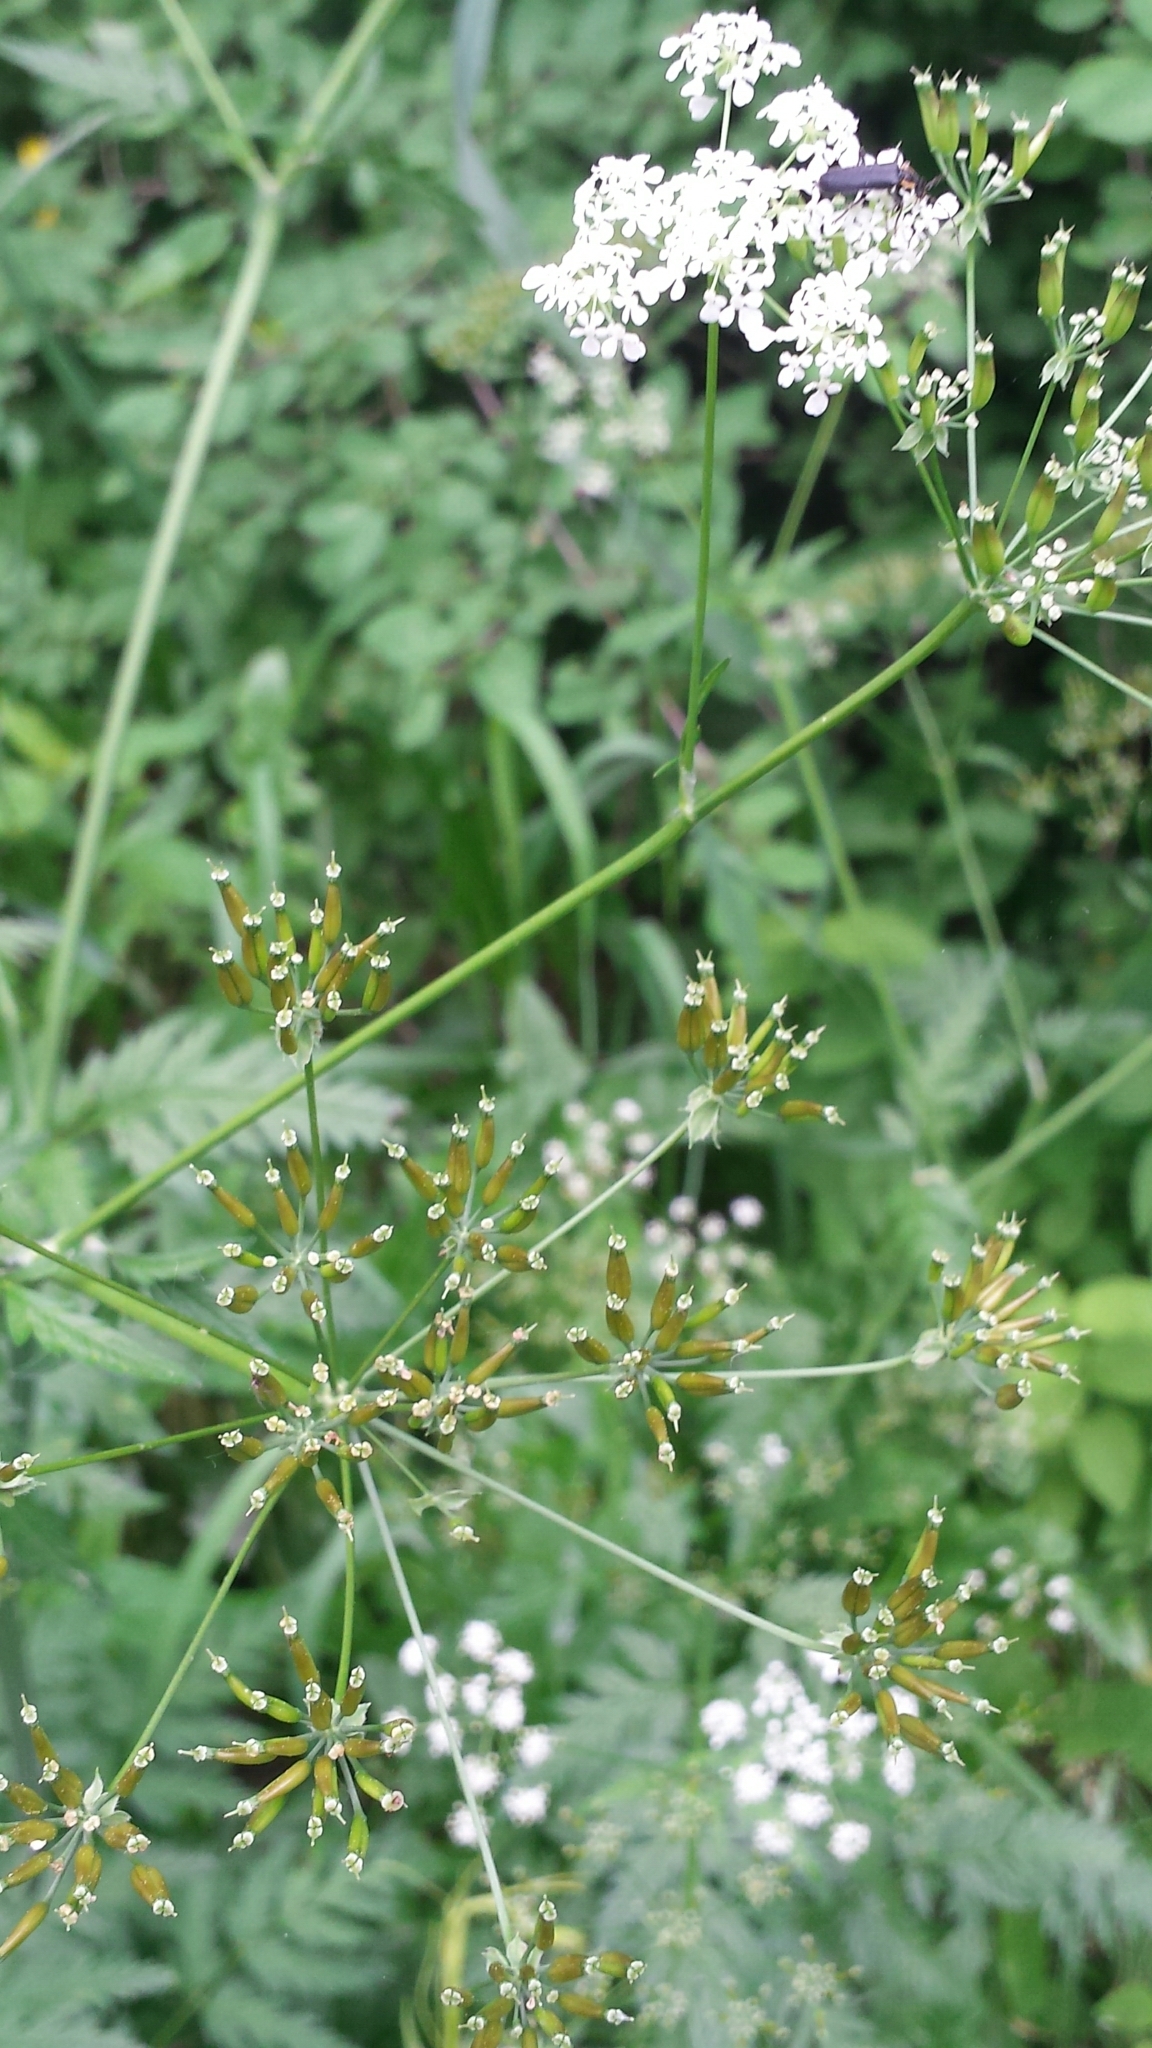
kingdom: Plantae
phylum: Tracheophyta
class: Magnoliopsida
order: Apiales
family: Apiaceae
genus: Anthriscus
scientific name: Anthriscus sylvestris
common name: Cow parsley
